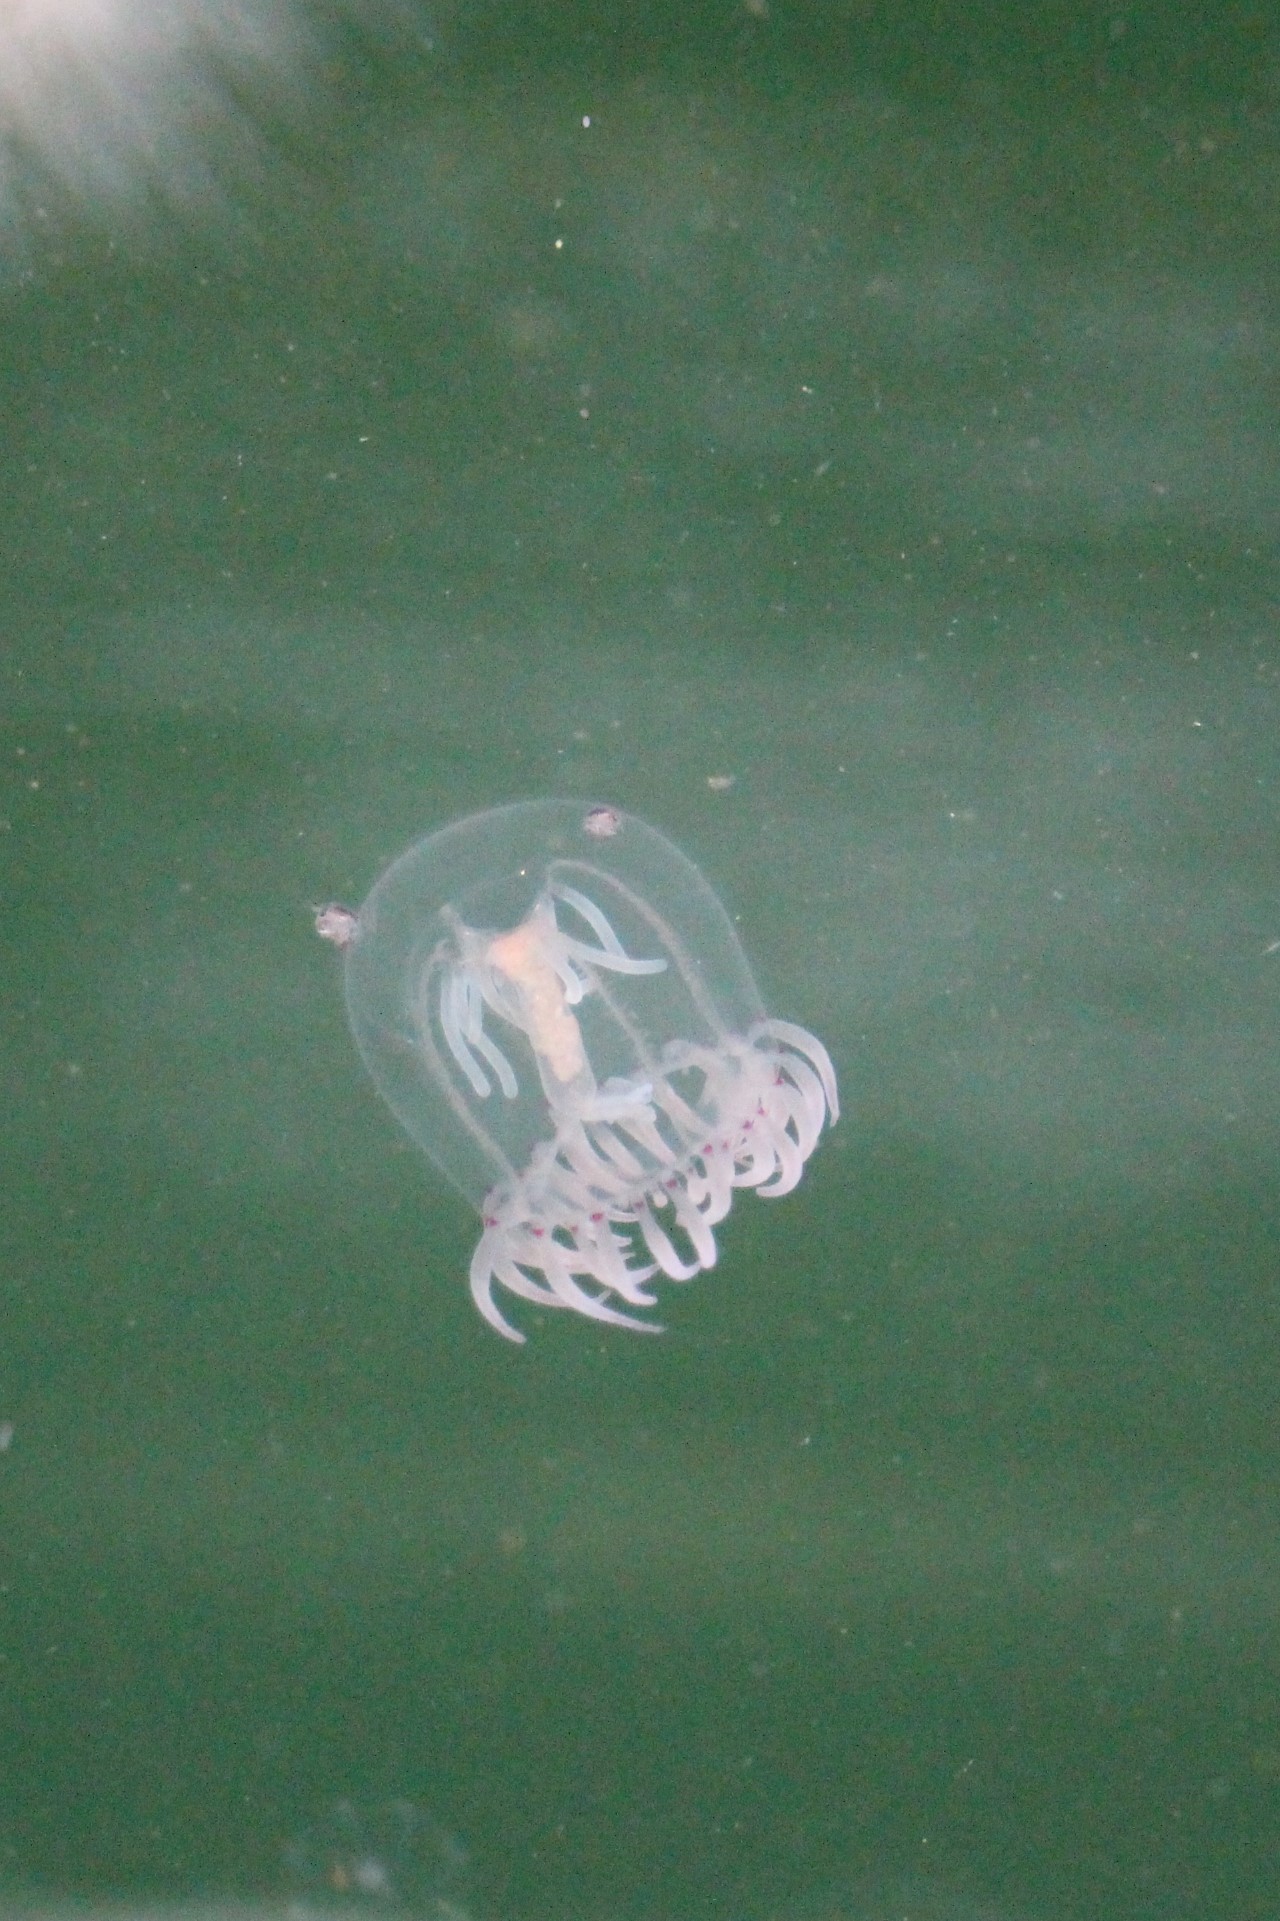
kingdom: Animalia
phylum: Cnidaria
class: Hydrozoa
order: Anthoathecata
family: Corynidae
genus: Polyorchis
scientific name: Polyorchis penicillatus
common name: Penicillate jellyfish
